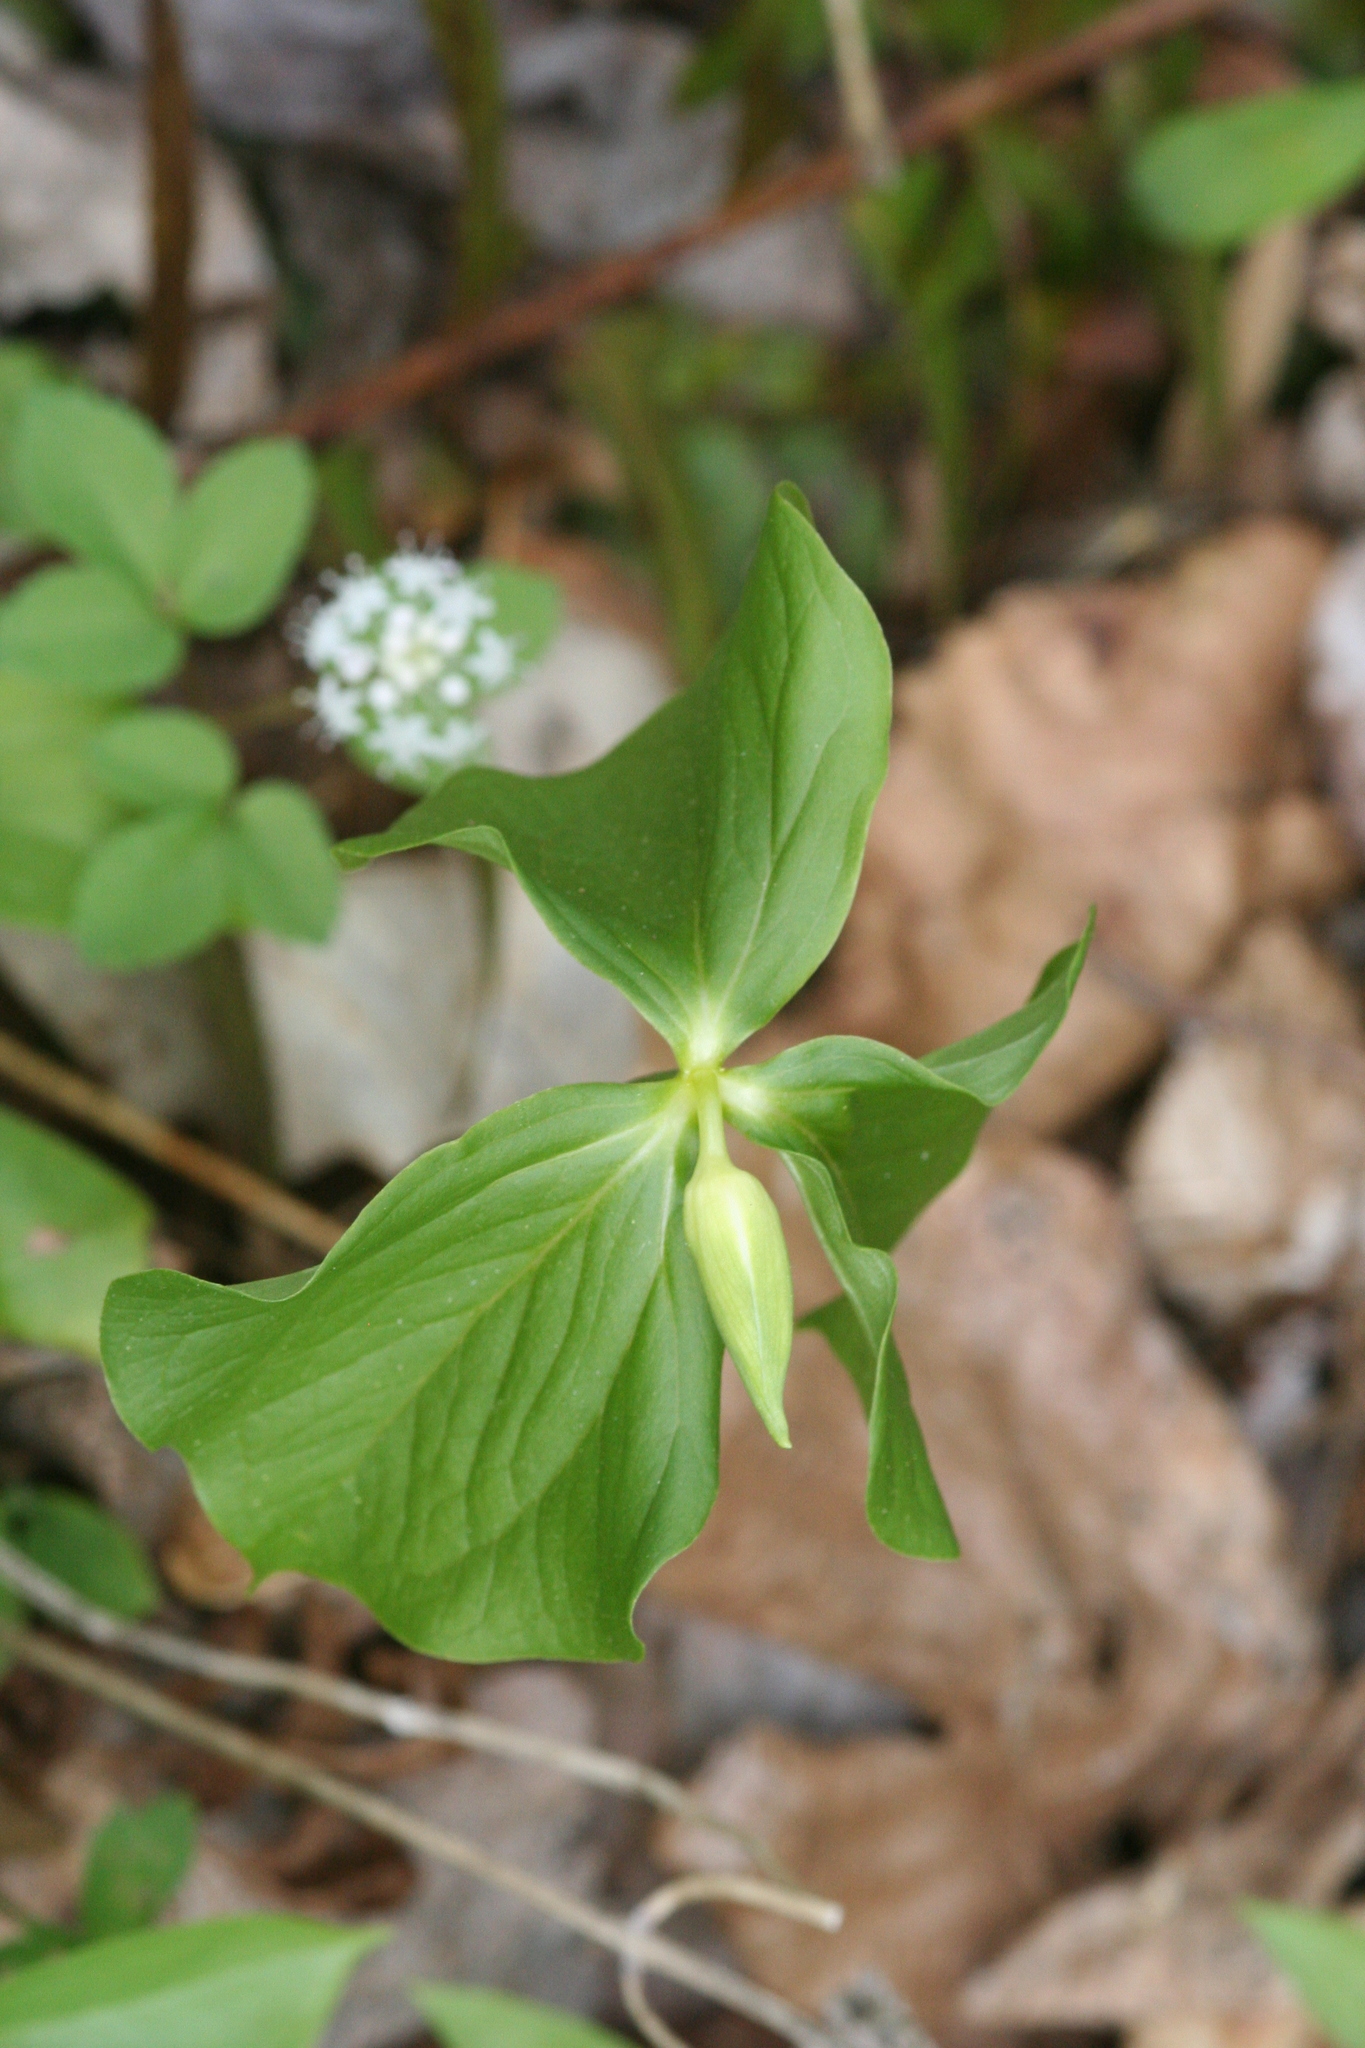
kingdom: Plantae
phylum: Tracheophyta
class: Liliopsida
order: Liliales
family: Melanthiaceae
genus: Trillium
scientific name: Trillium cernuum
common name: Nodding trillium
